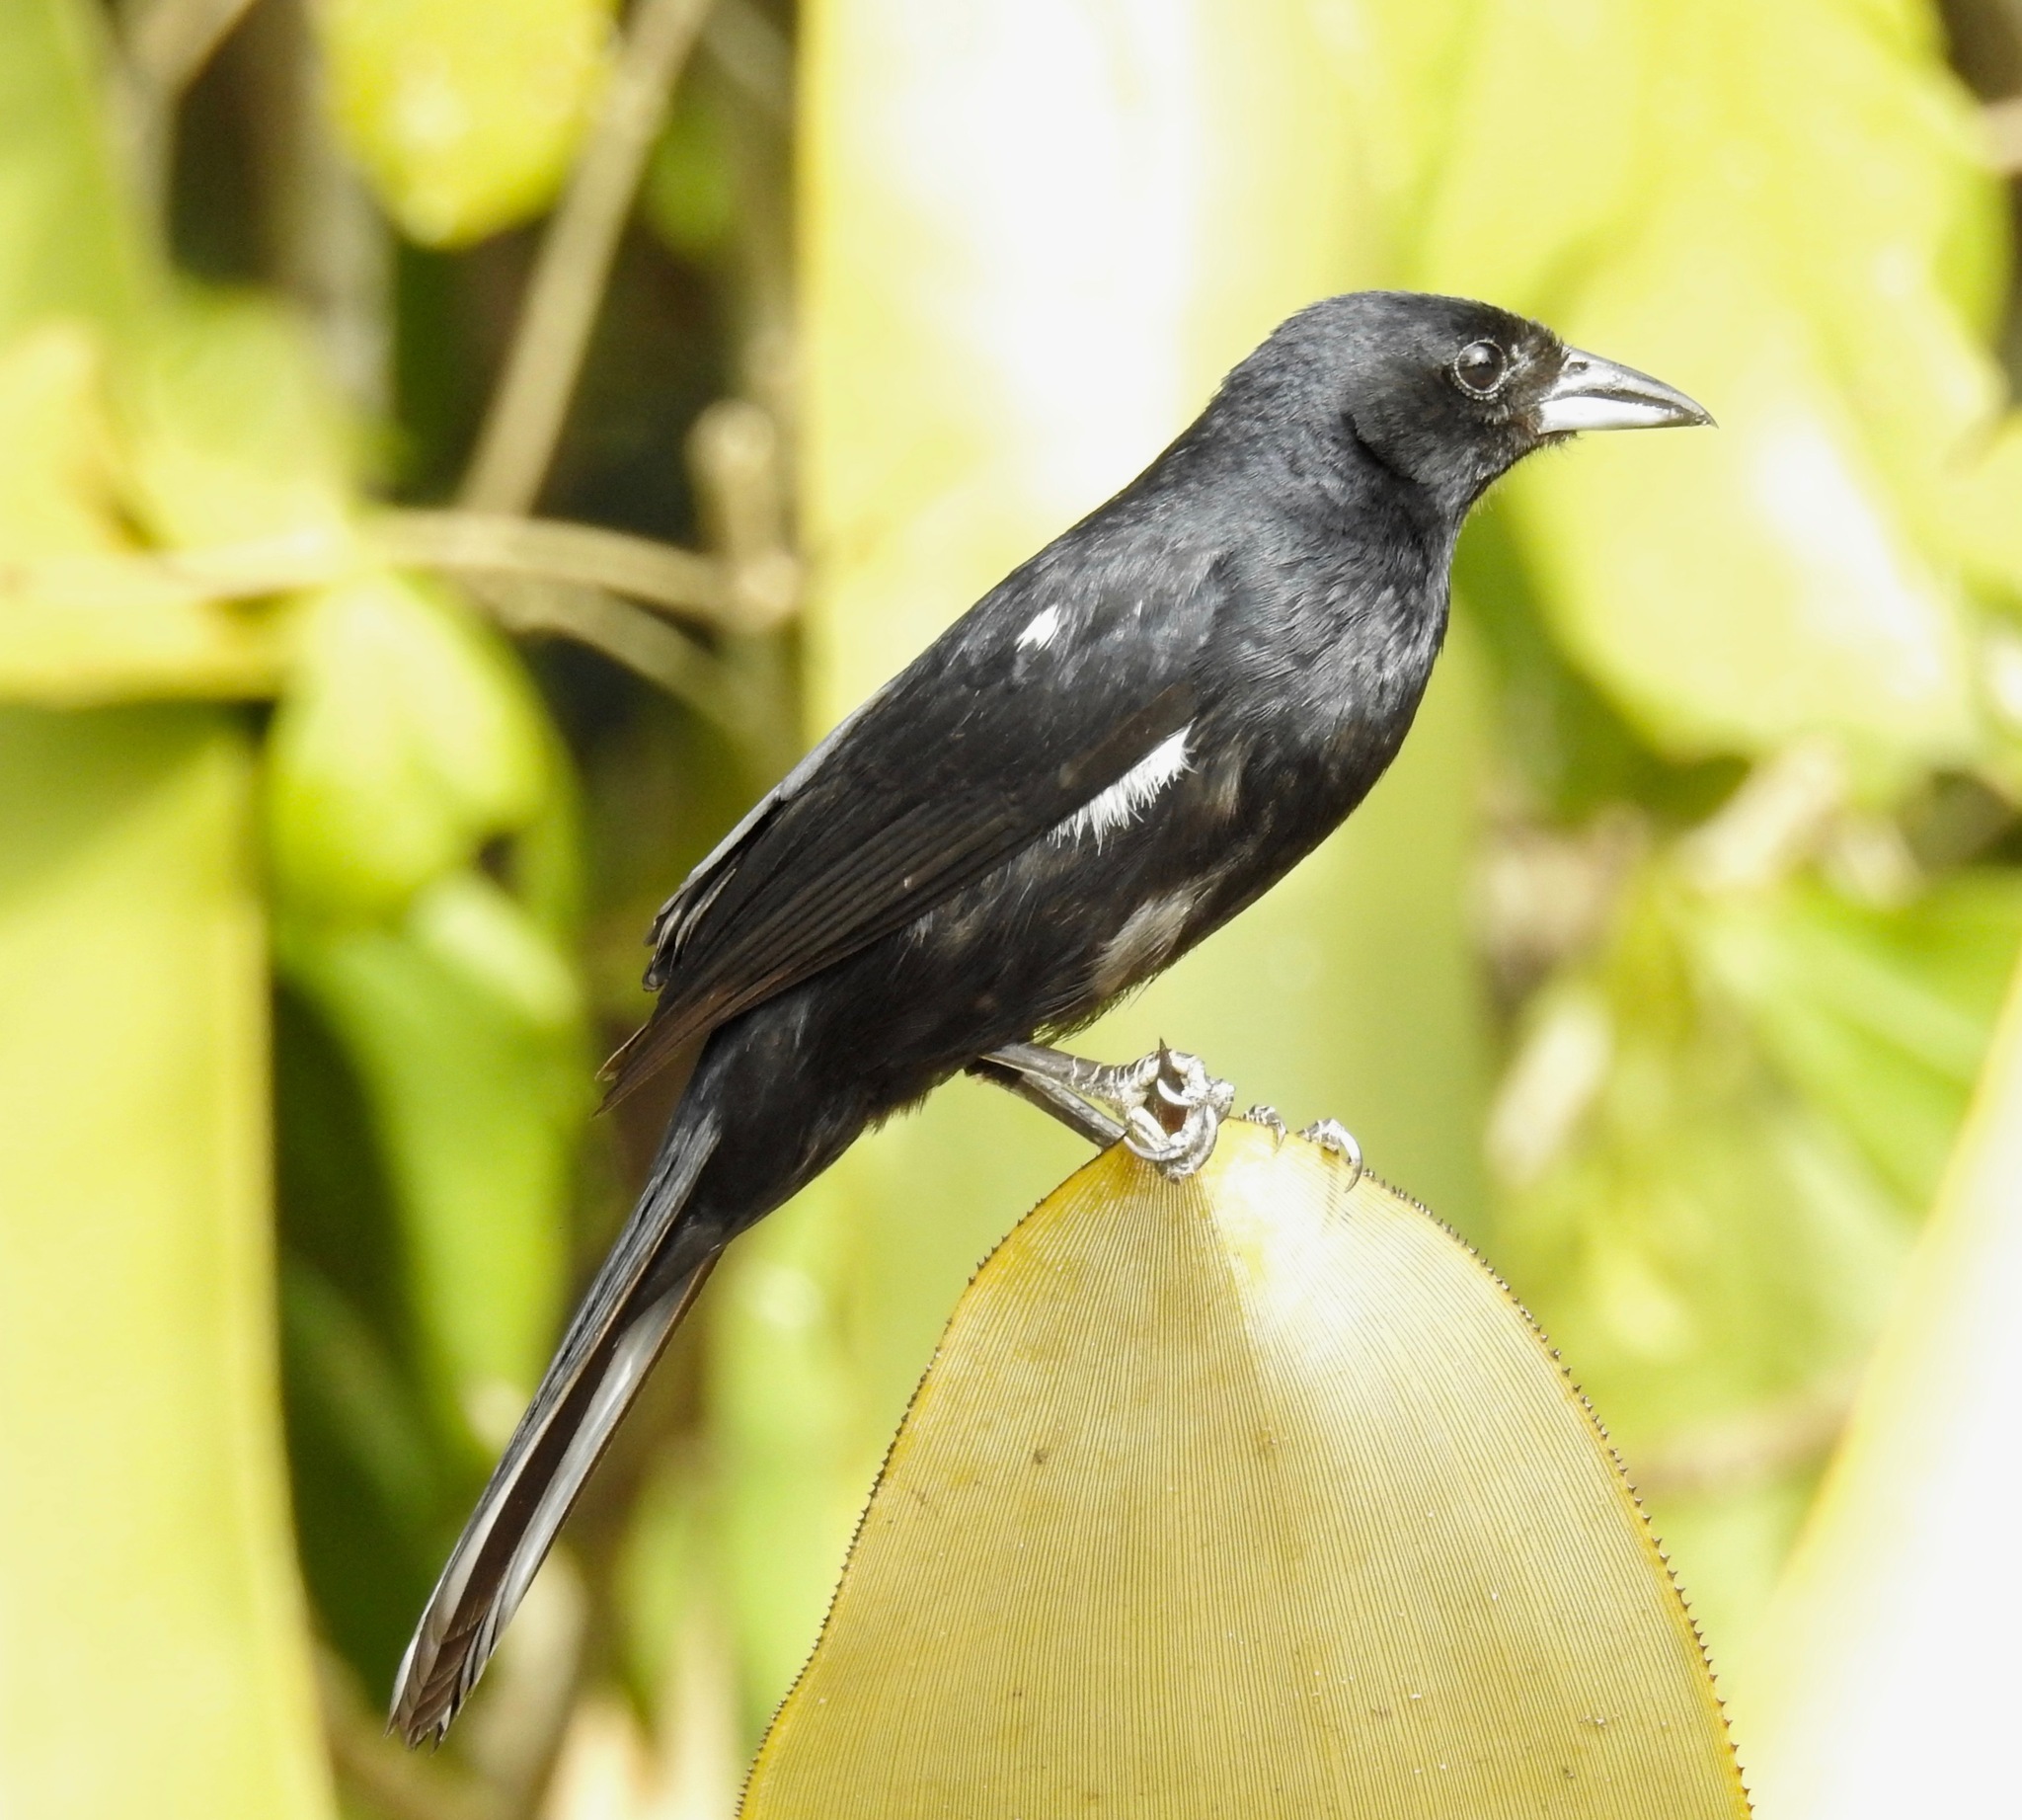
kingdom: Animalia
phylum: Chordata
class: Aves
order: Passeriformes
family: Thraupidae
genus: Tachyphonus
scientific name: Tachyphonus rufus
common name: White-lined tanager
